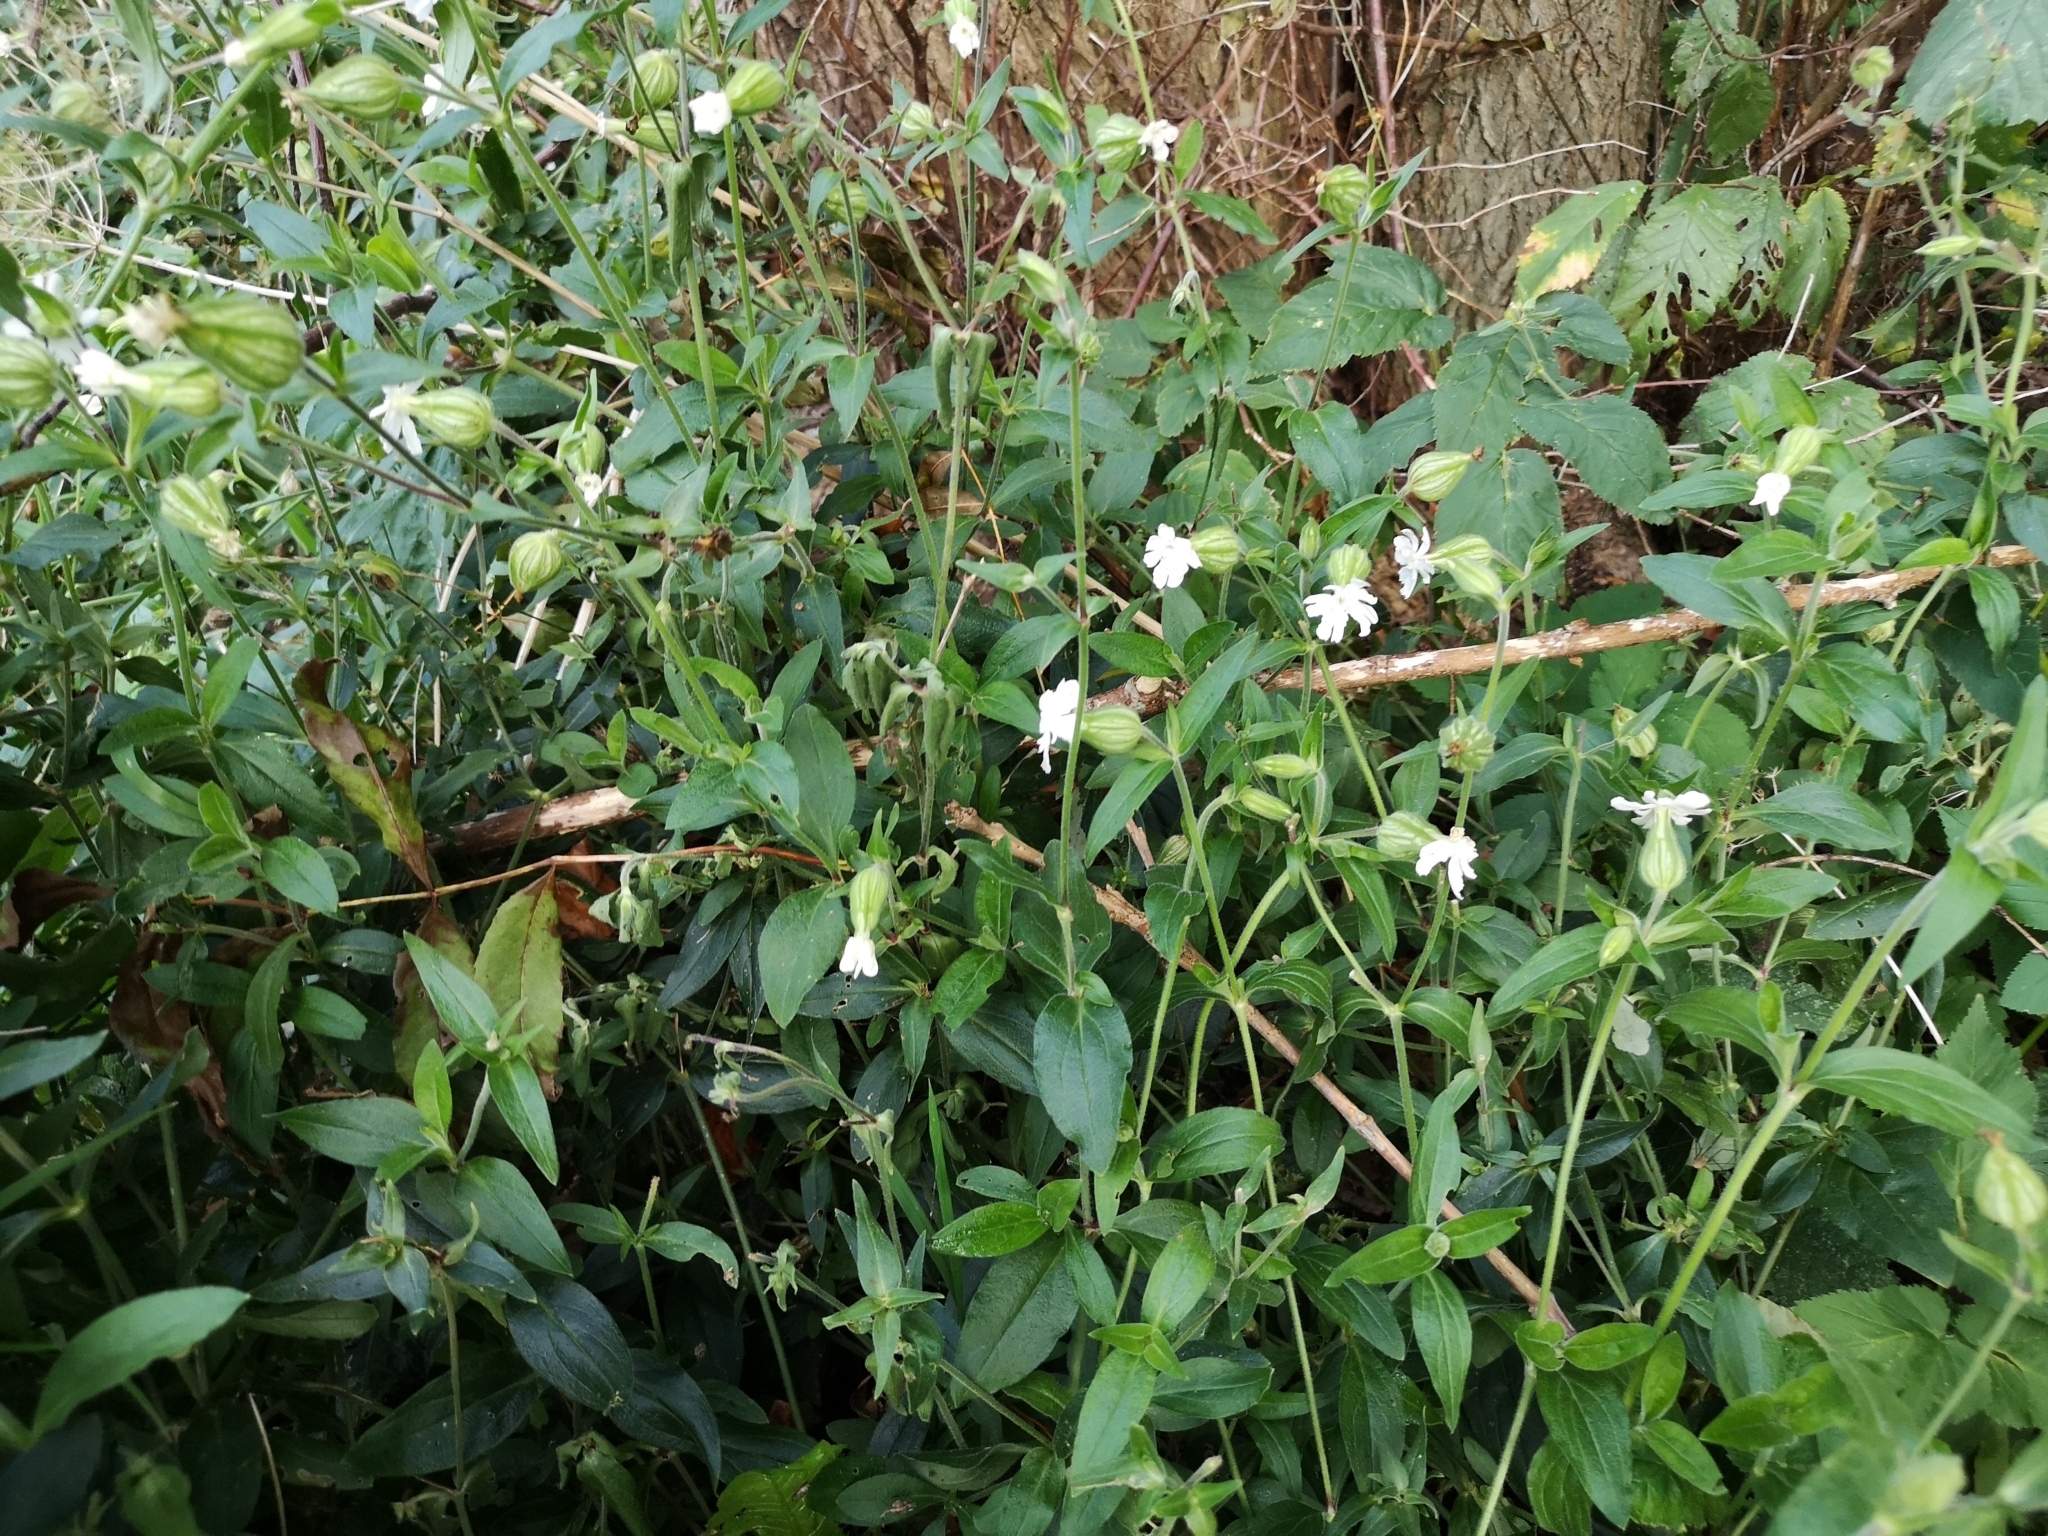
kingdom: Plantae
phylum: Tracheophyta
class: Magnoliopsida
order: Caryophyllales
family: Caryophyllaceae
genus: Silene
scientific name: Silene latifolia
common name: White campion
